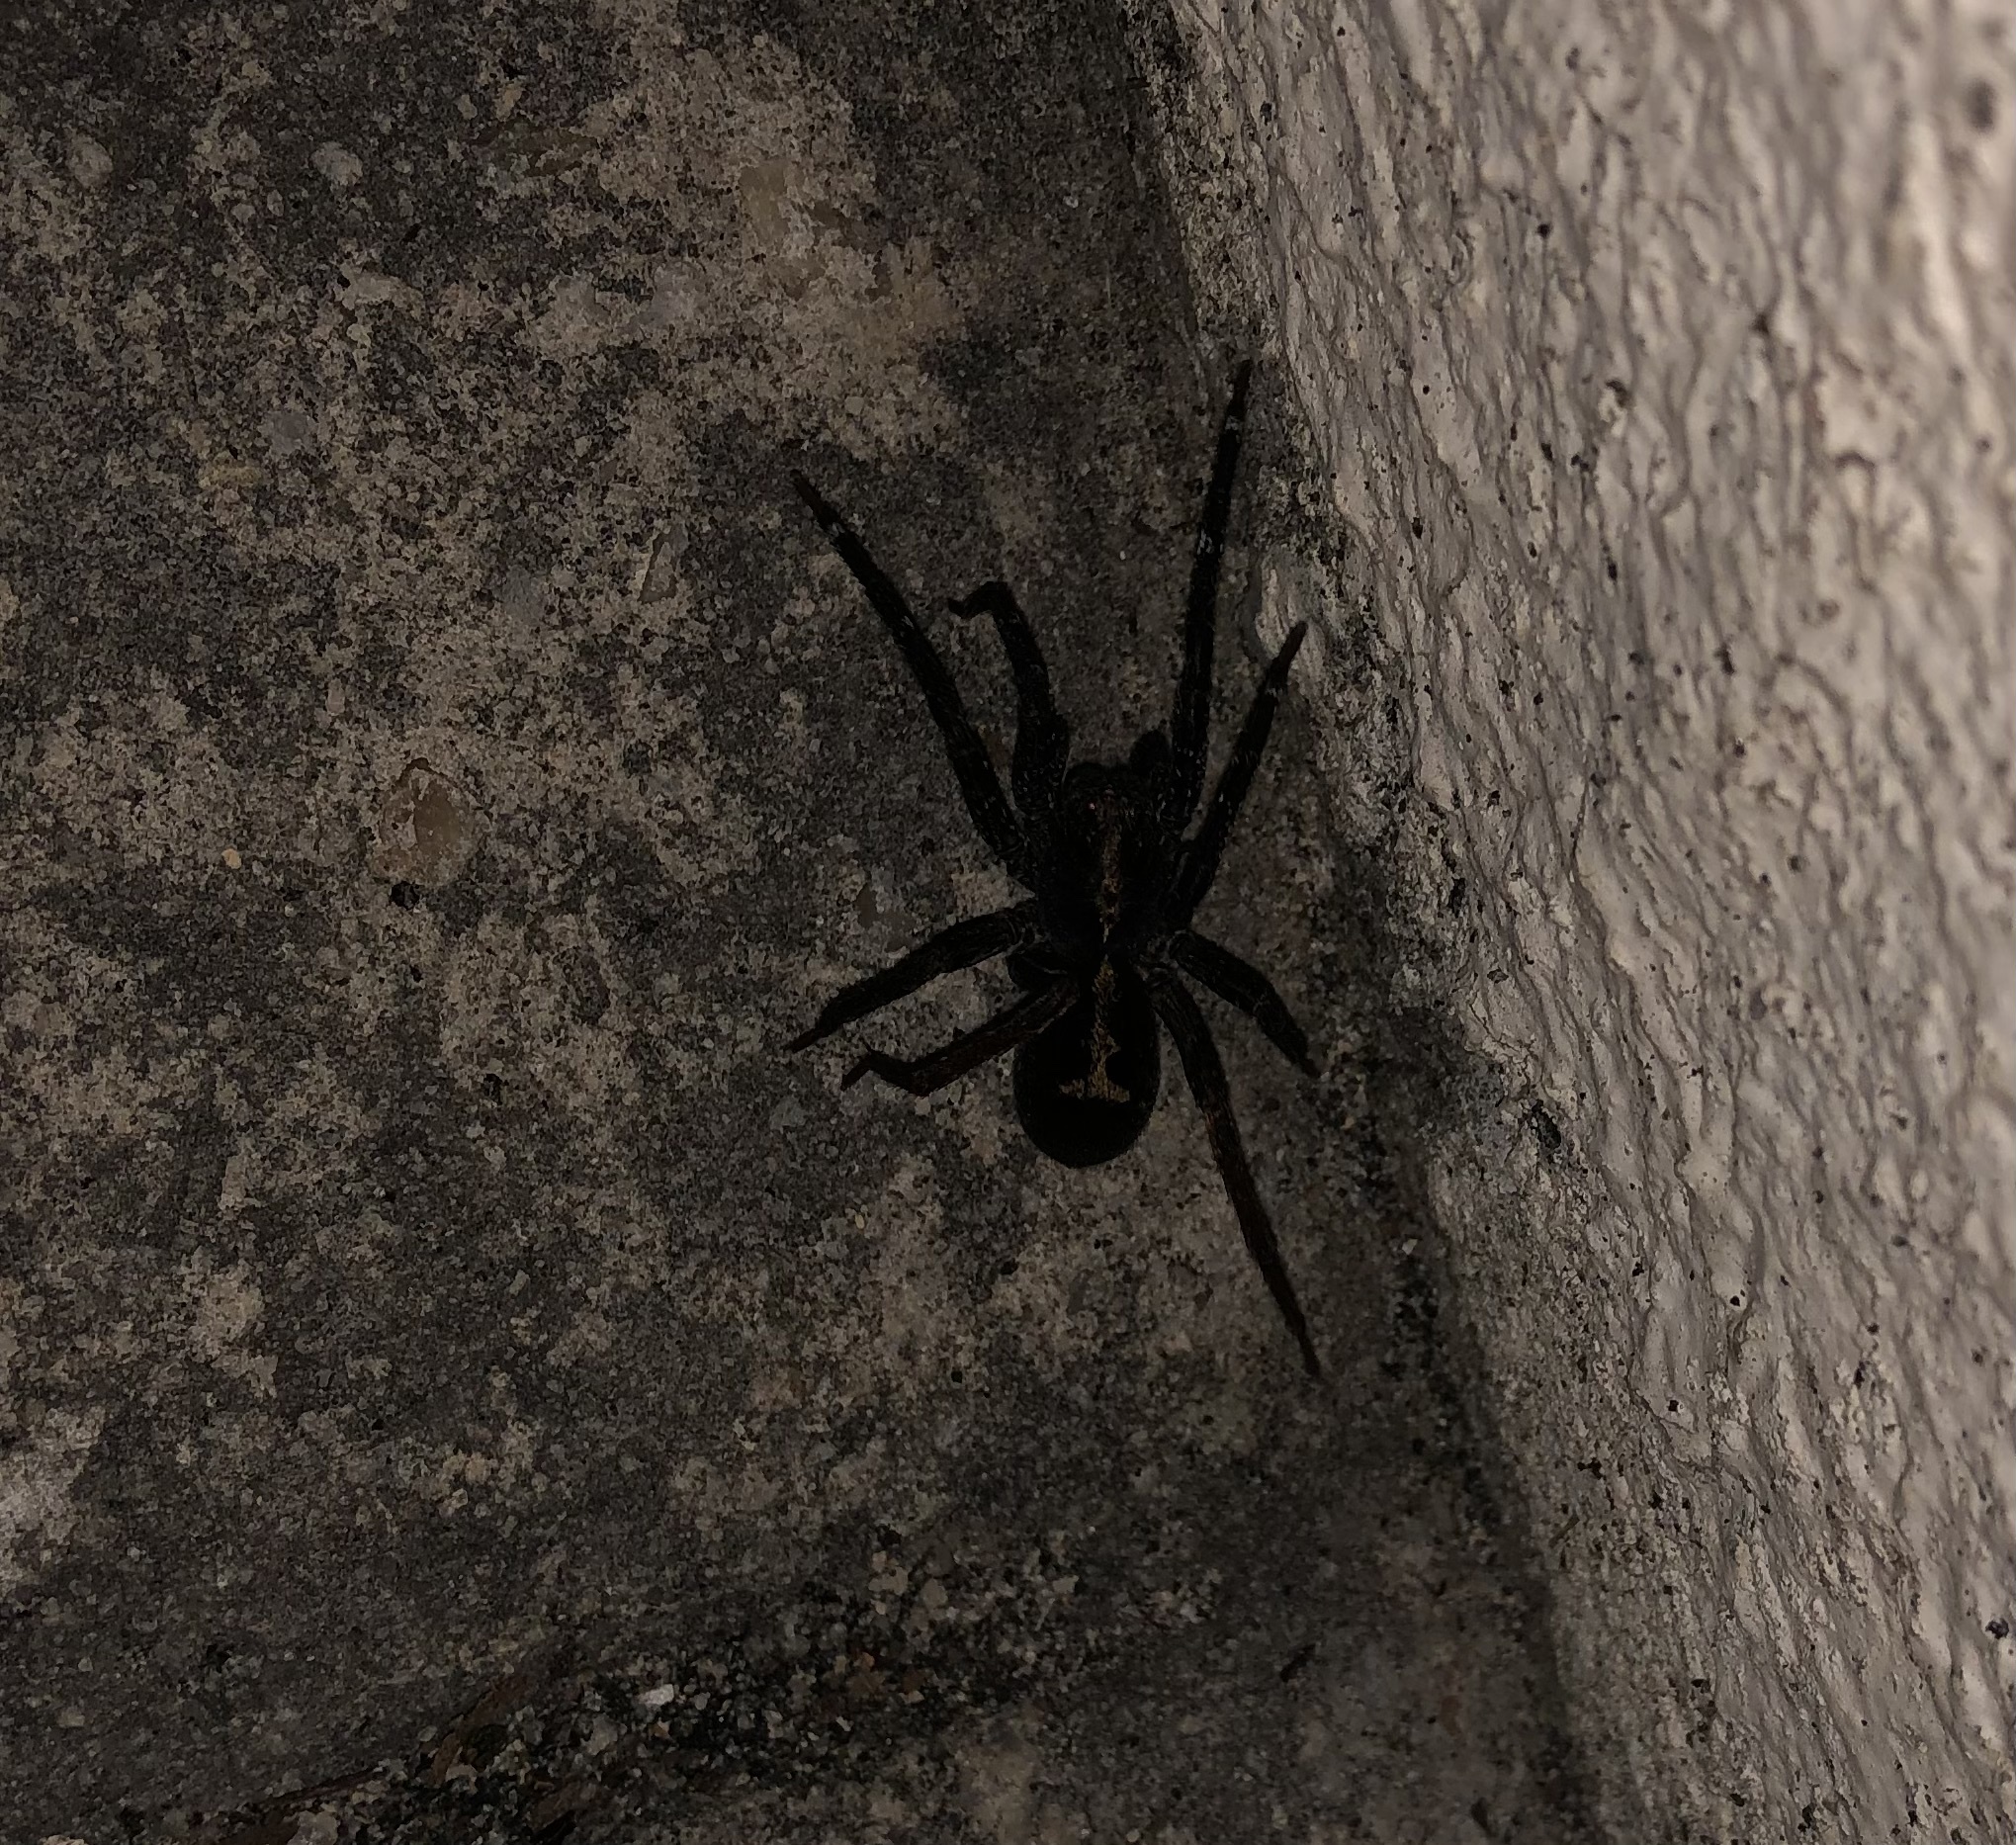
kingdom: Animalia
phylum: Arthropoda
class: Arachnida
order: Araneae
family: Ctenidae
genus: Ctenus
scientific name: Ctenus amphora
